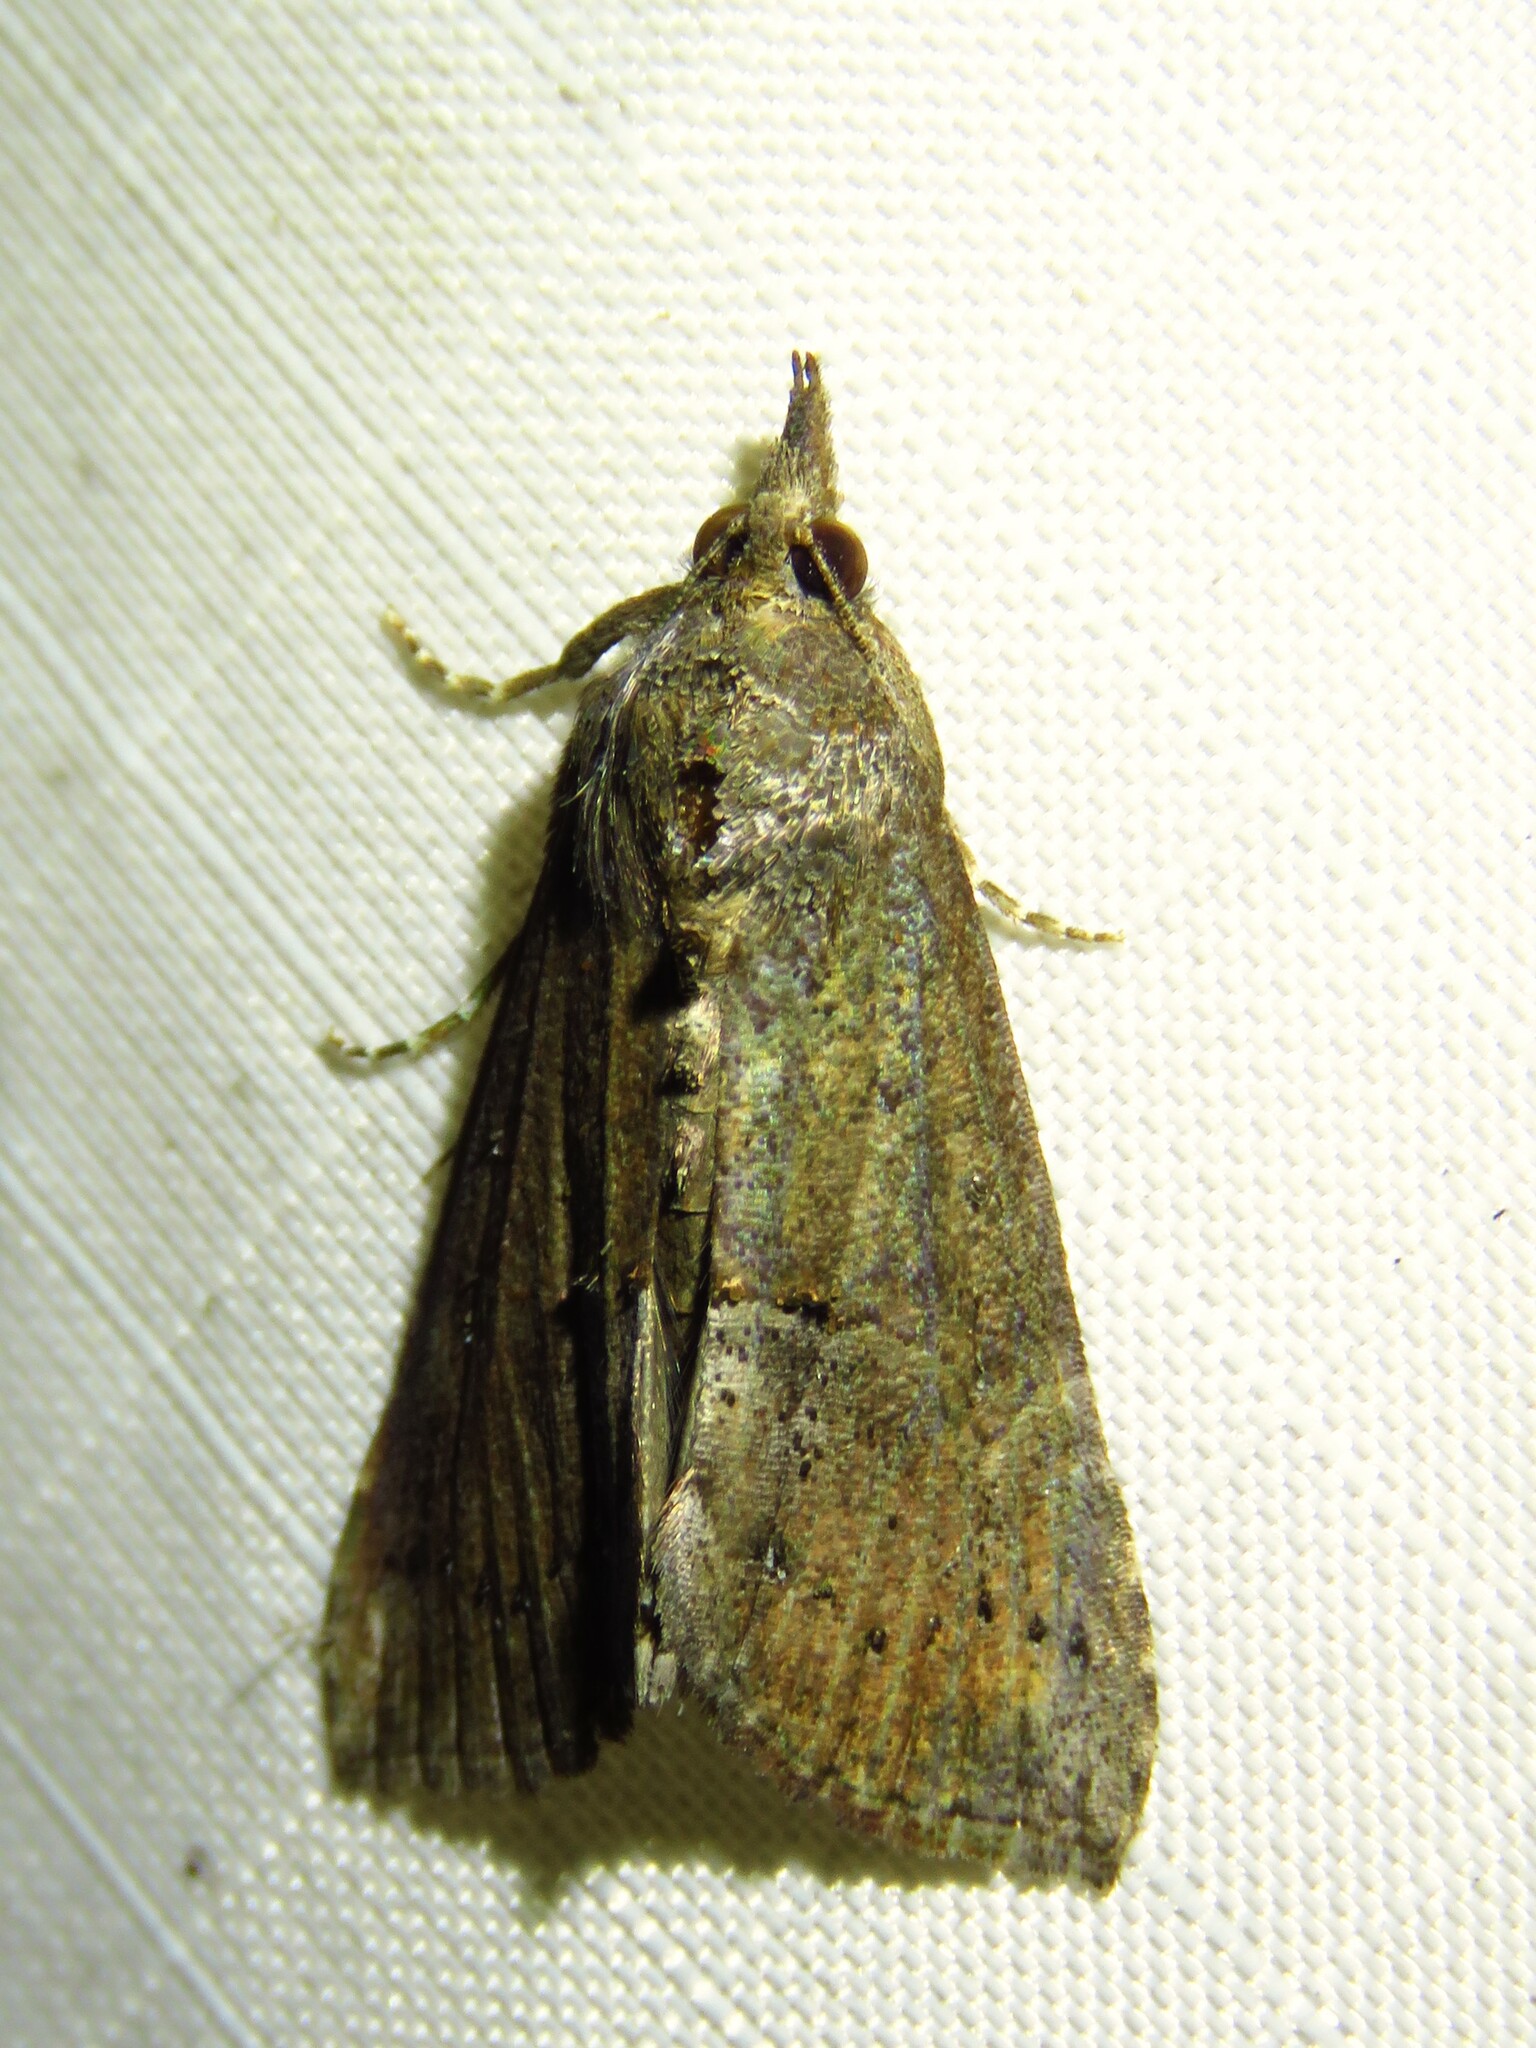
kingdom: Animalia
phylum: Arthropoda
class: Insecta
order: Lepidoptera
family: Erebidae
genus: Hypena
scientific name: Hypena scabra
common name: Green cloverworm
